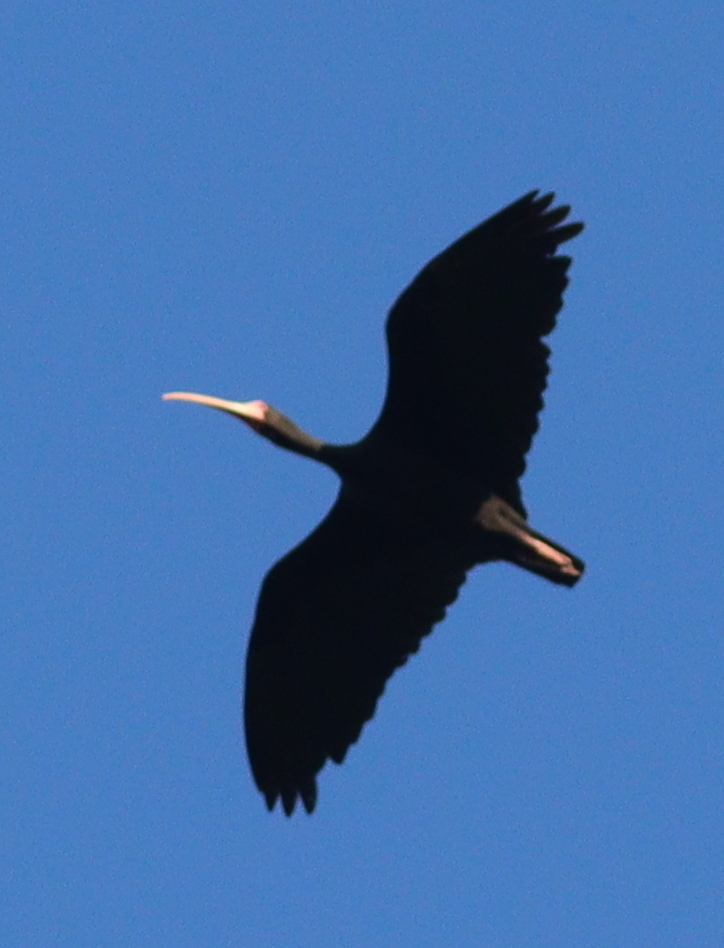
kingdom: Animalia
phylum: Chordata
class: Aves
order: Pelecaniformes
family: Threskiornithidae
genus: Phimosus
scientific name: Phimosus infuscatus
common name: Bare-faced ibis
